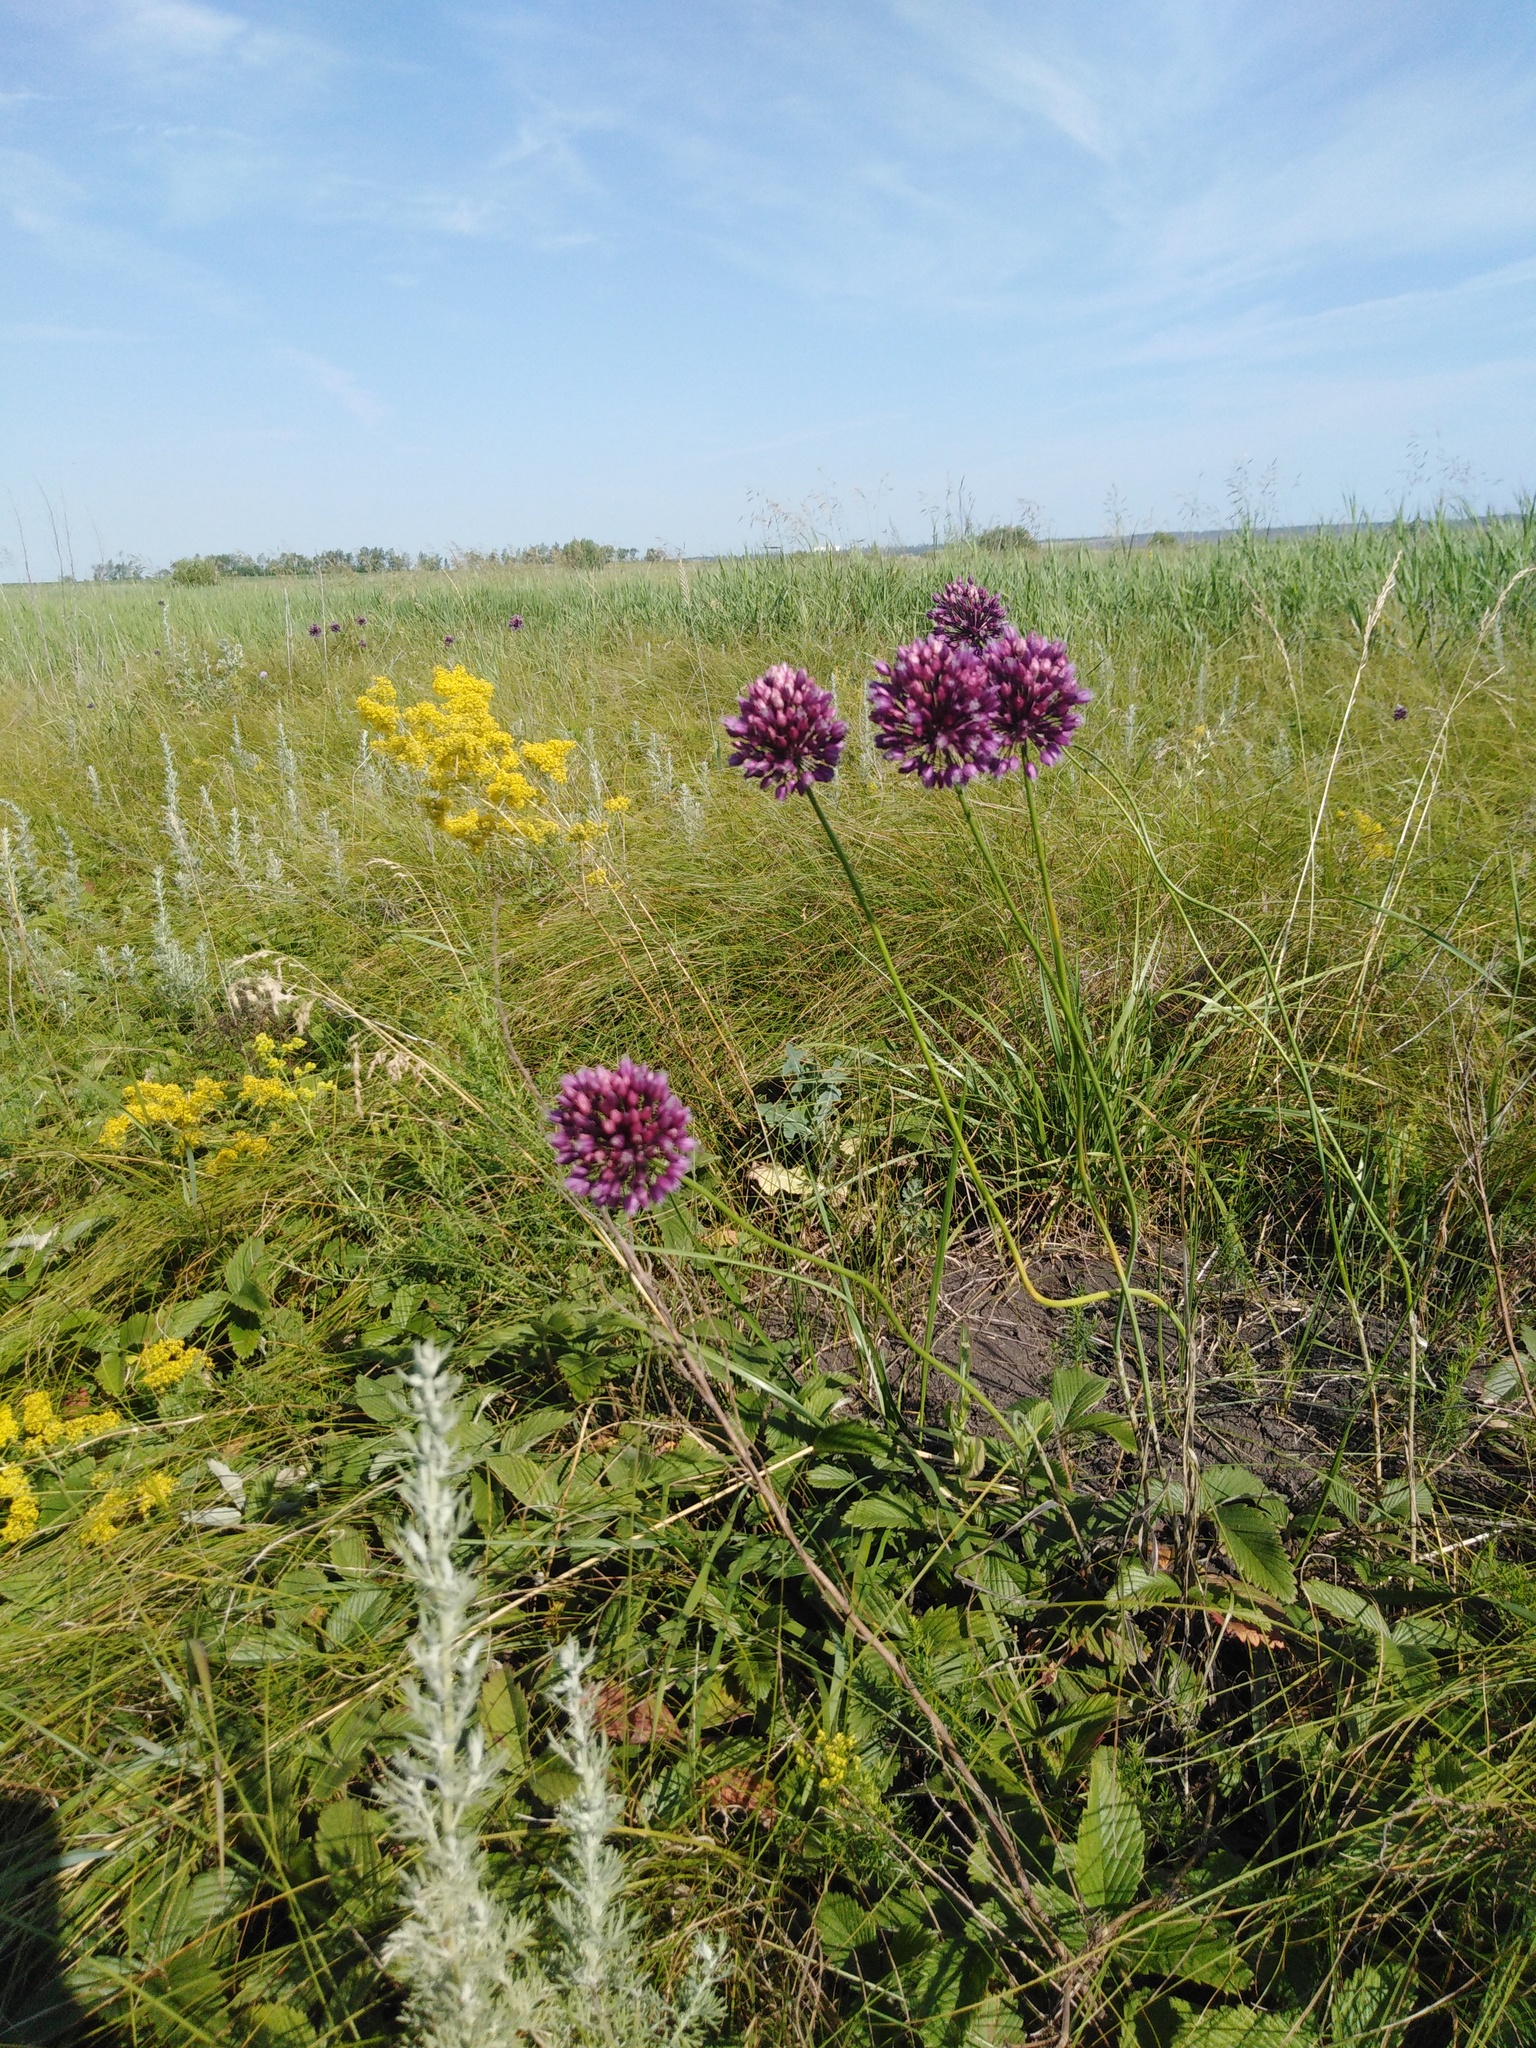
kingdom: Plantae
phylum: Tracheophyta
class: Liliopsida
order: Asparagales
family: Amaryllidaceae
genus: Allium
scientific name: Allium rotundum
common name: Sand leek
